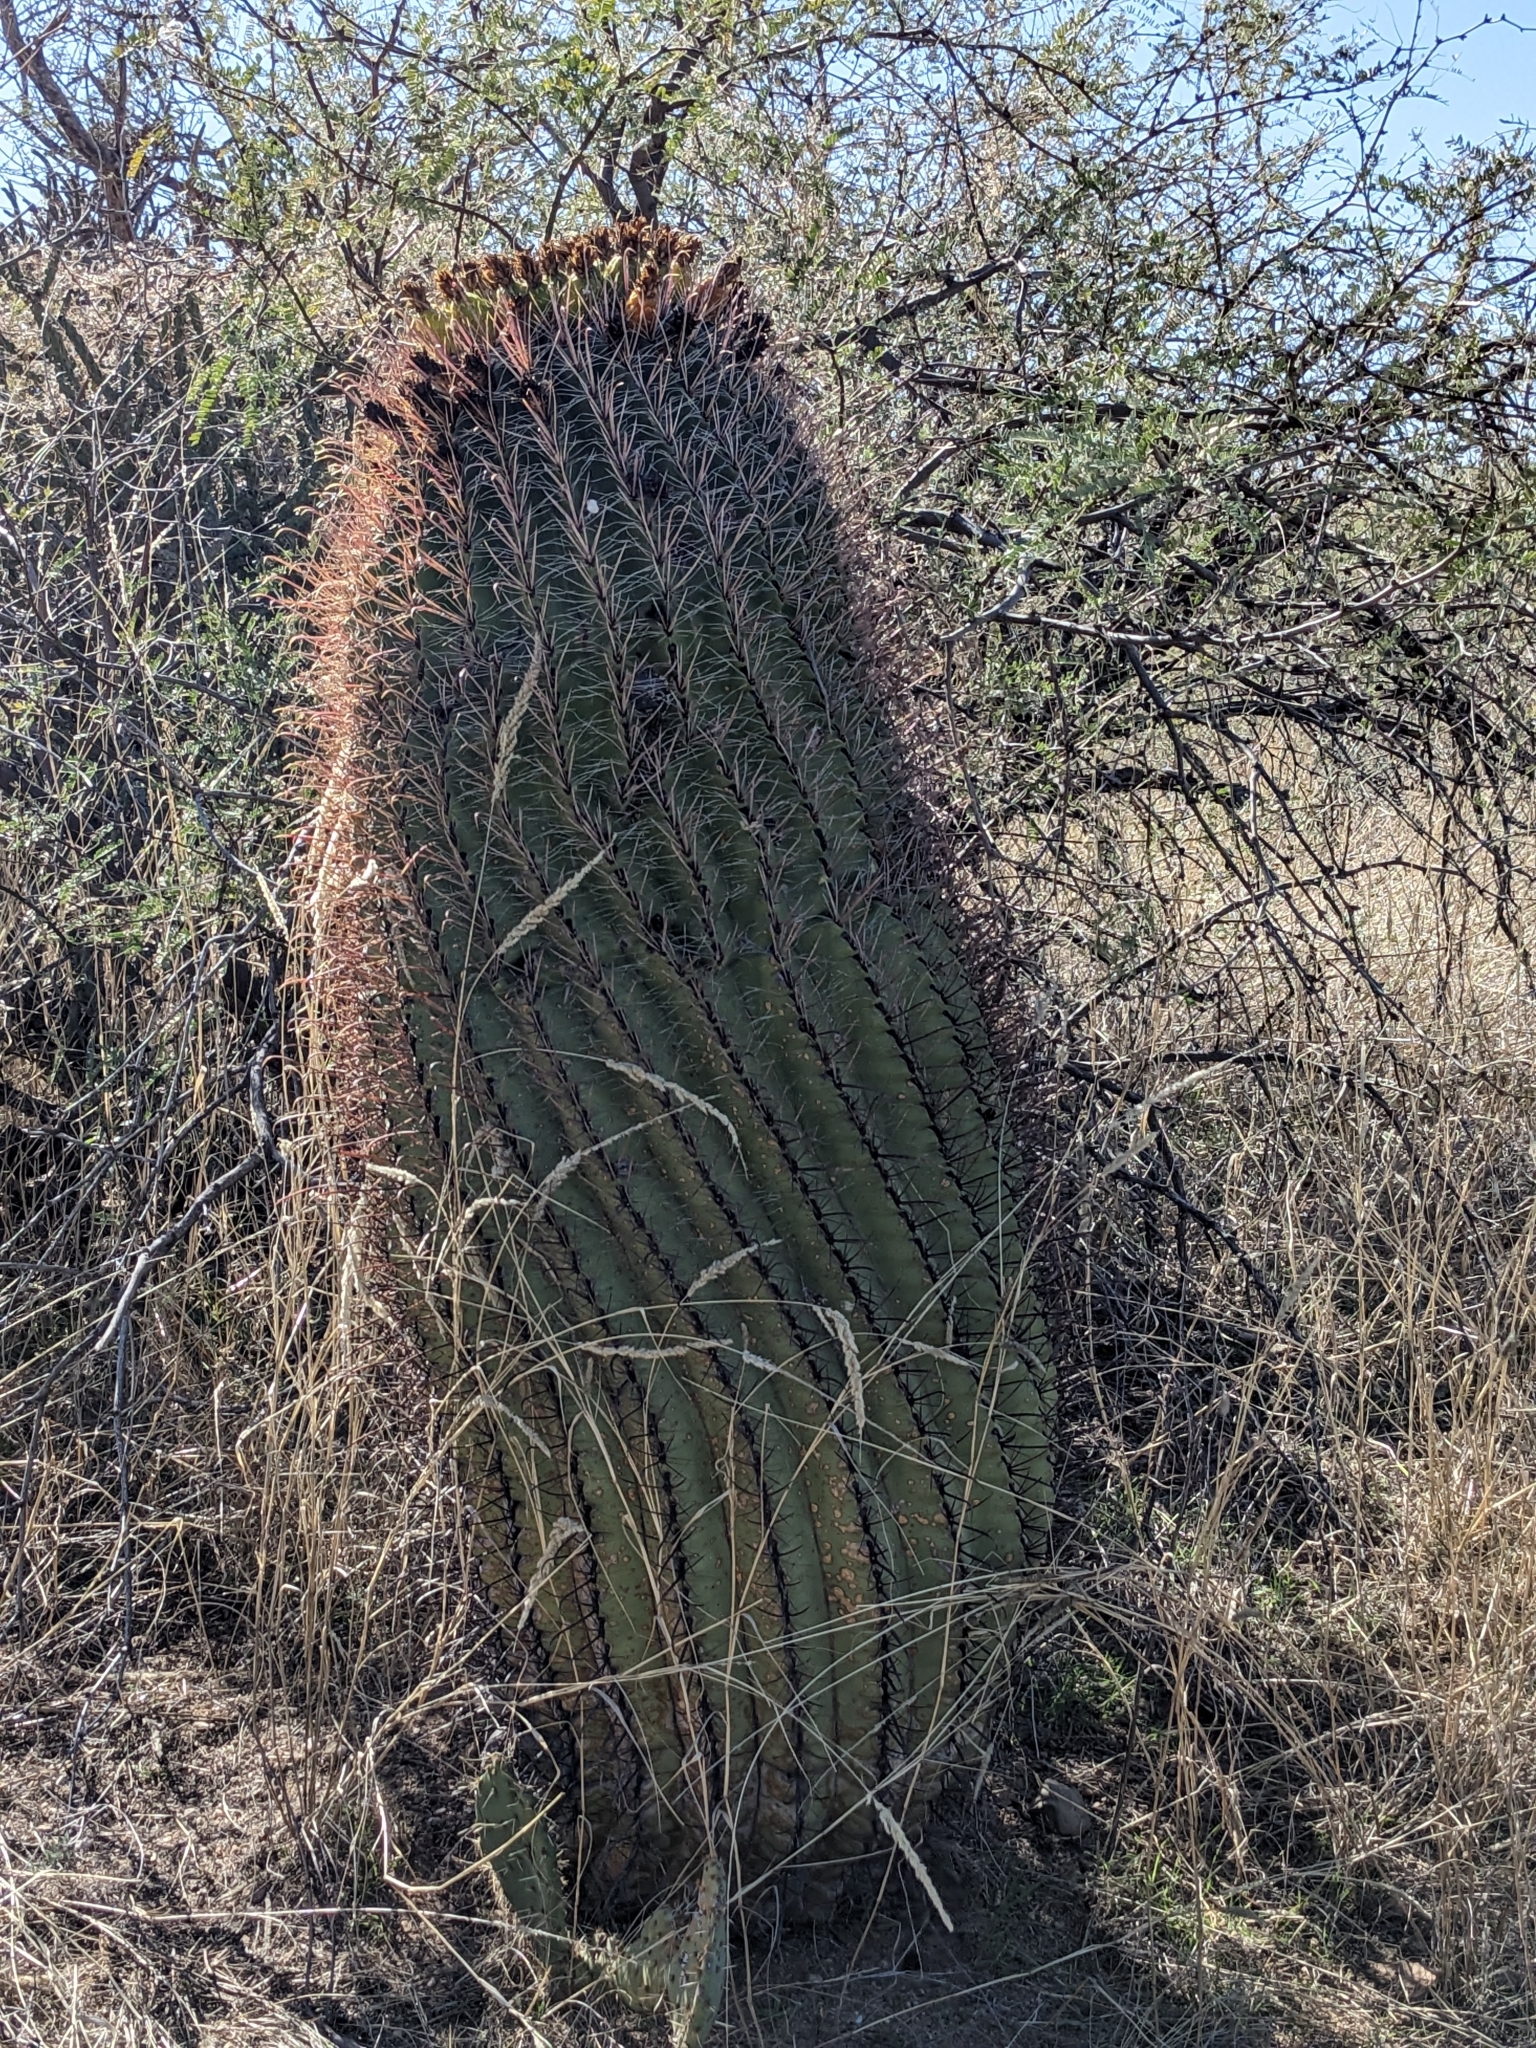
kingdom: Plantae
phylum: Tracheophyta
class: Magnoliopsida
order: Caryophyllales
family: Cactaceae
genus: Ferocactus
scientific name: Ferocactus wislizeni
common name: Candy barrel cactus
